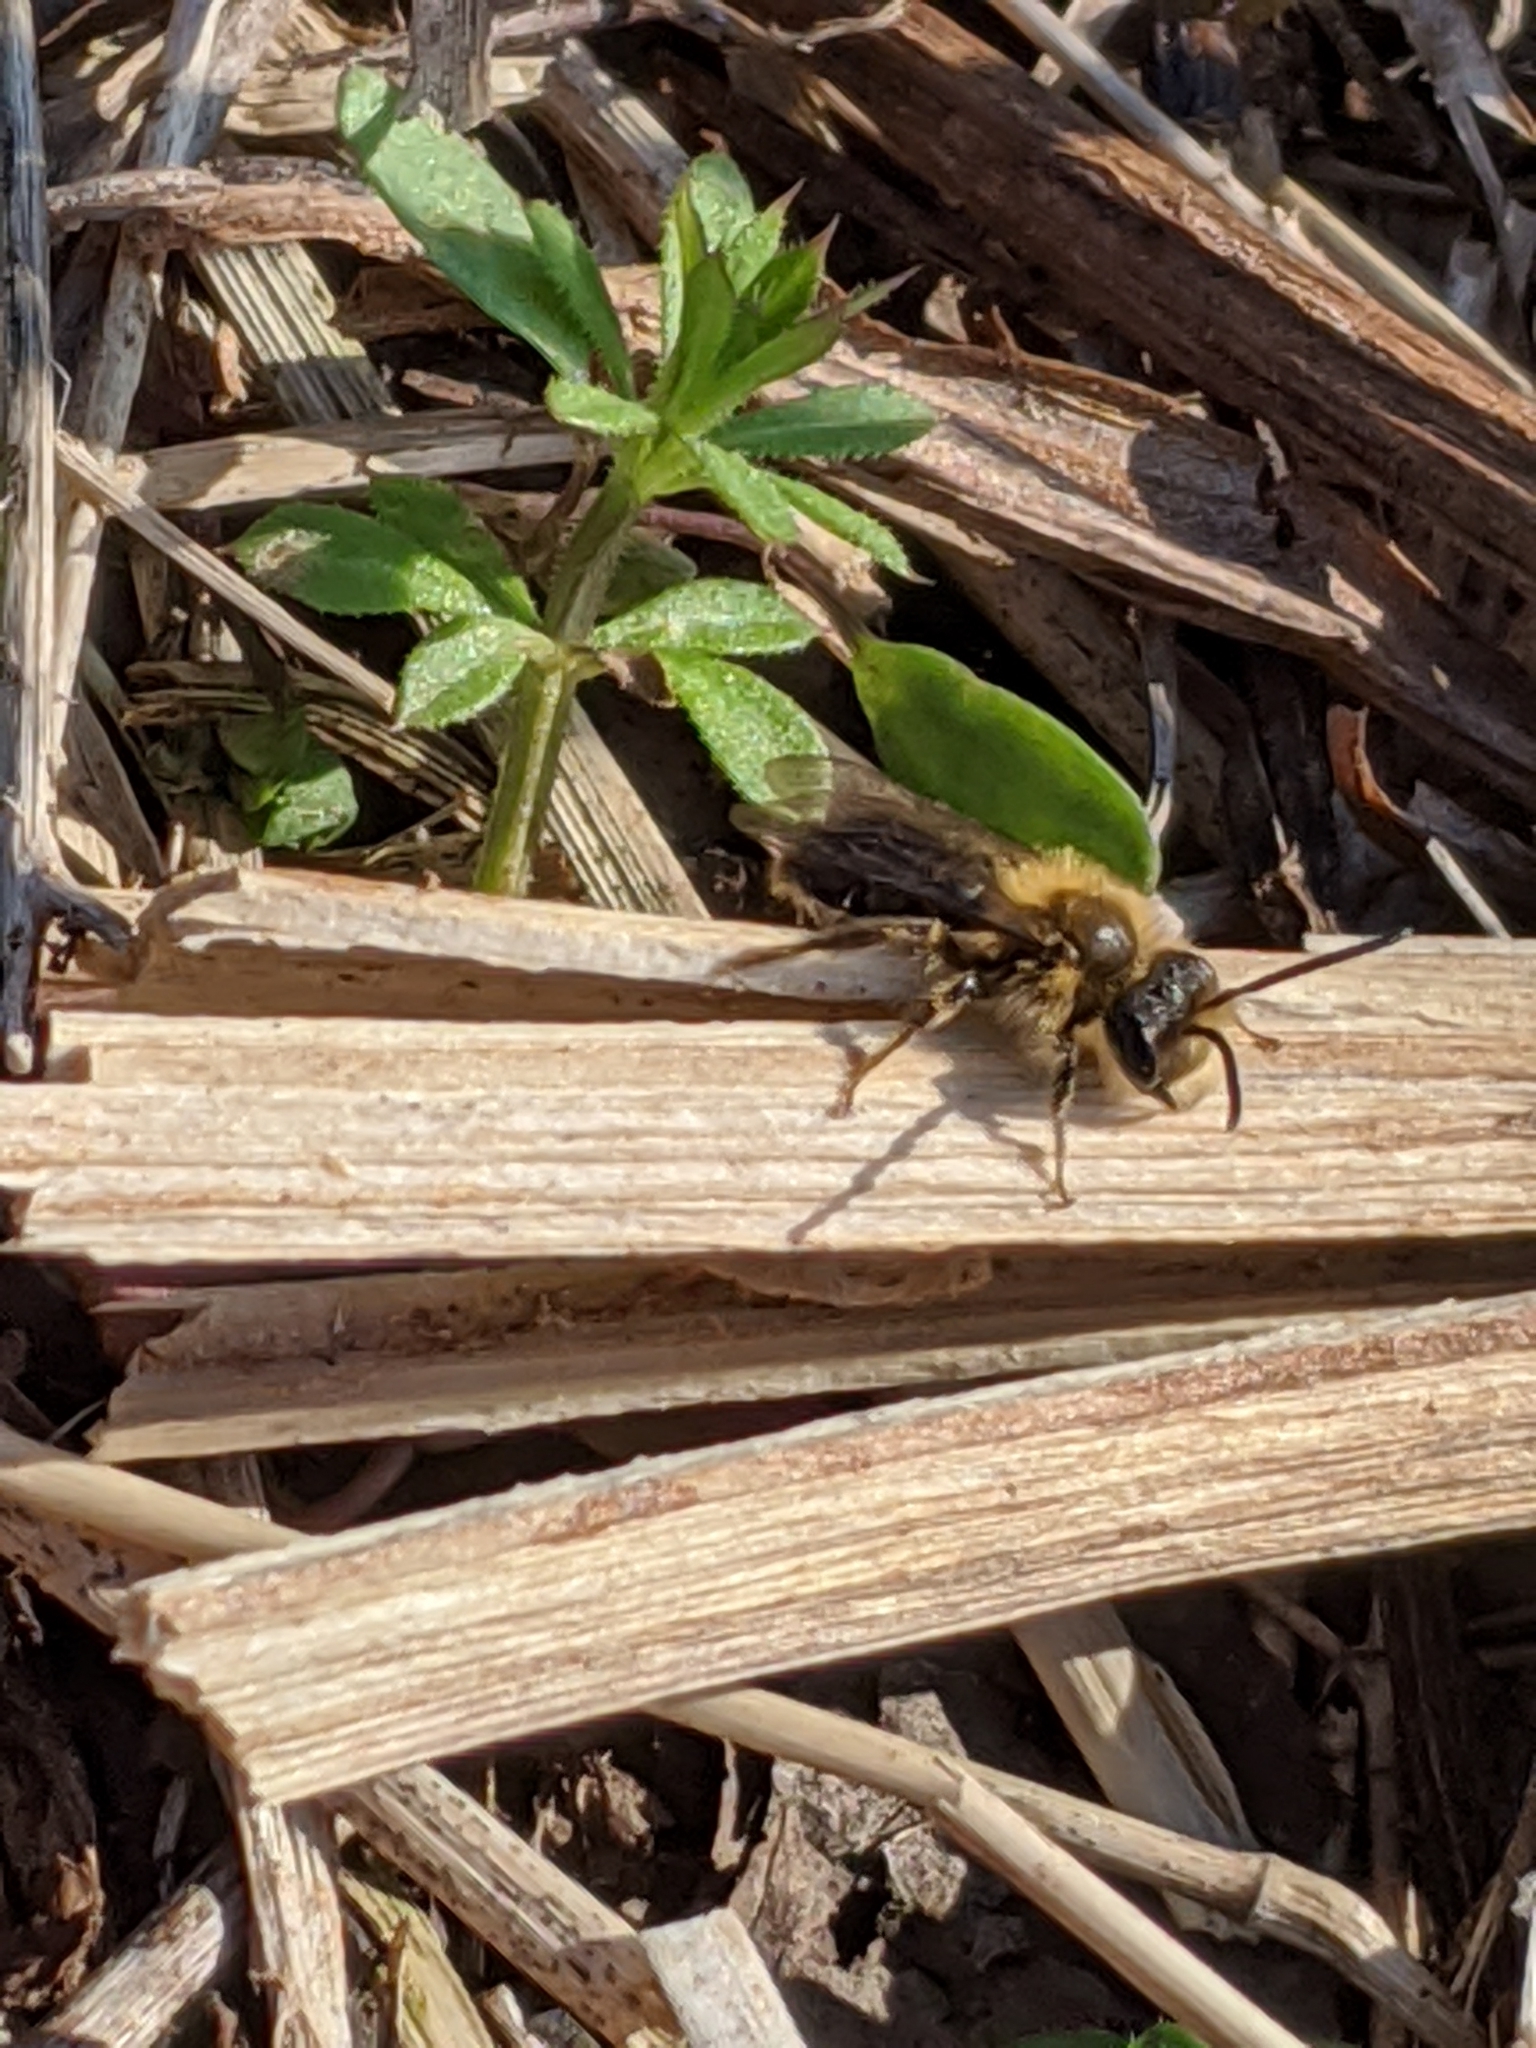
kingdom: Animalia
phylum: Arthropoda
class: Insecta
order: Hymenoptera
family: Andrenidae
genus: Andrena
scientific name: Andrena
